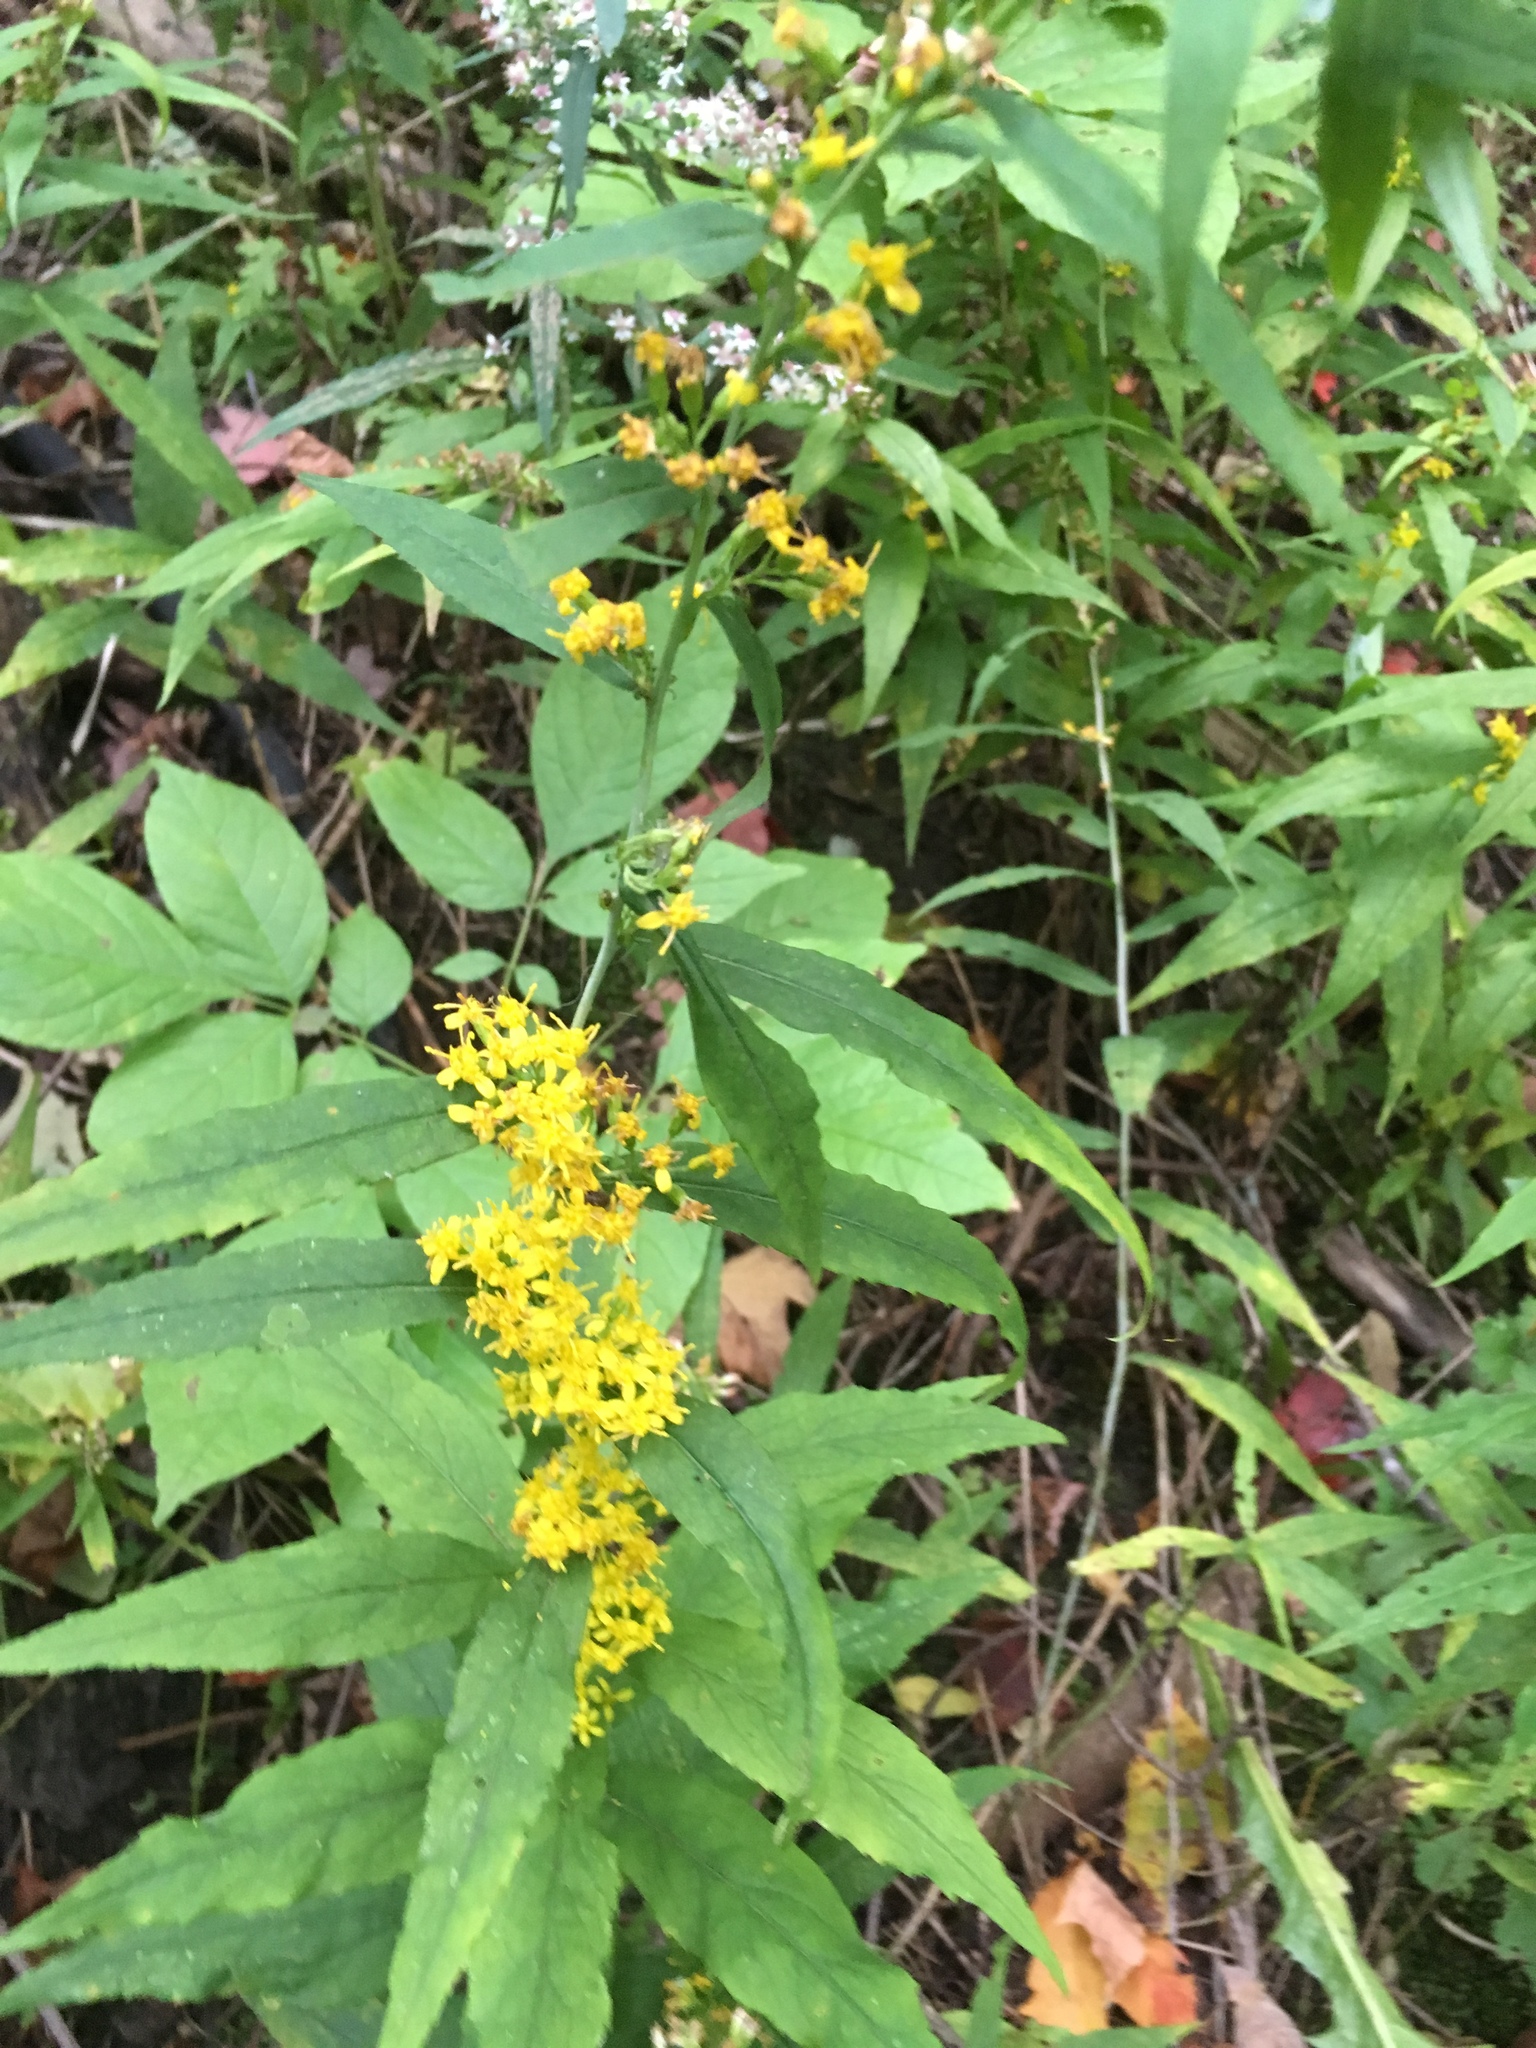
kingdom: Plantae
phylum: Tracheophyta
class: Magnoliopsida
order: Asterales
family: Asteraceae
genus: Solidago
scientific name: Solidago caesia
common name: Woodland goldenrod
